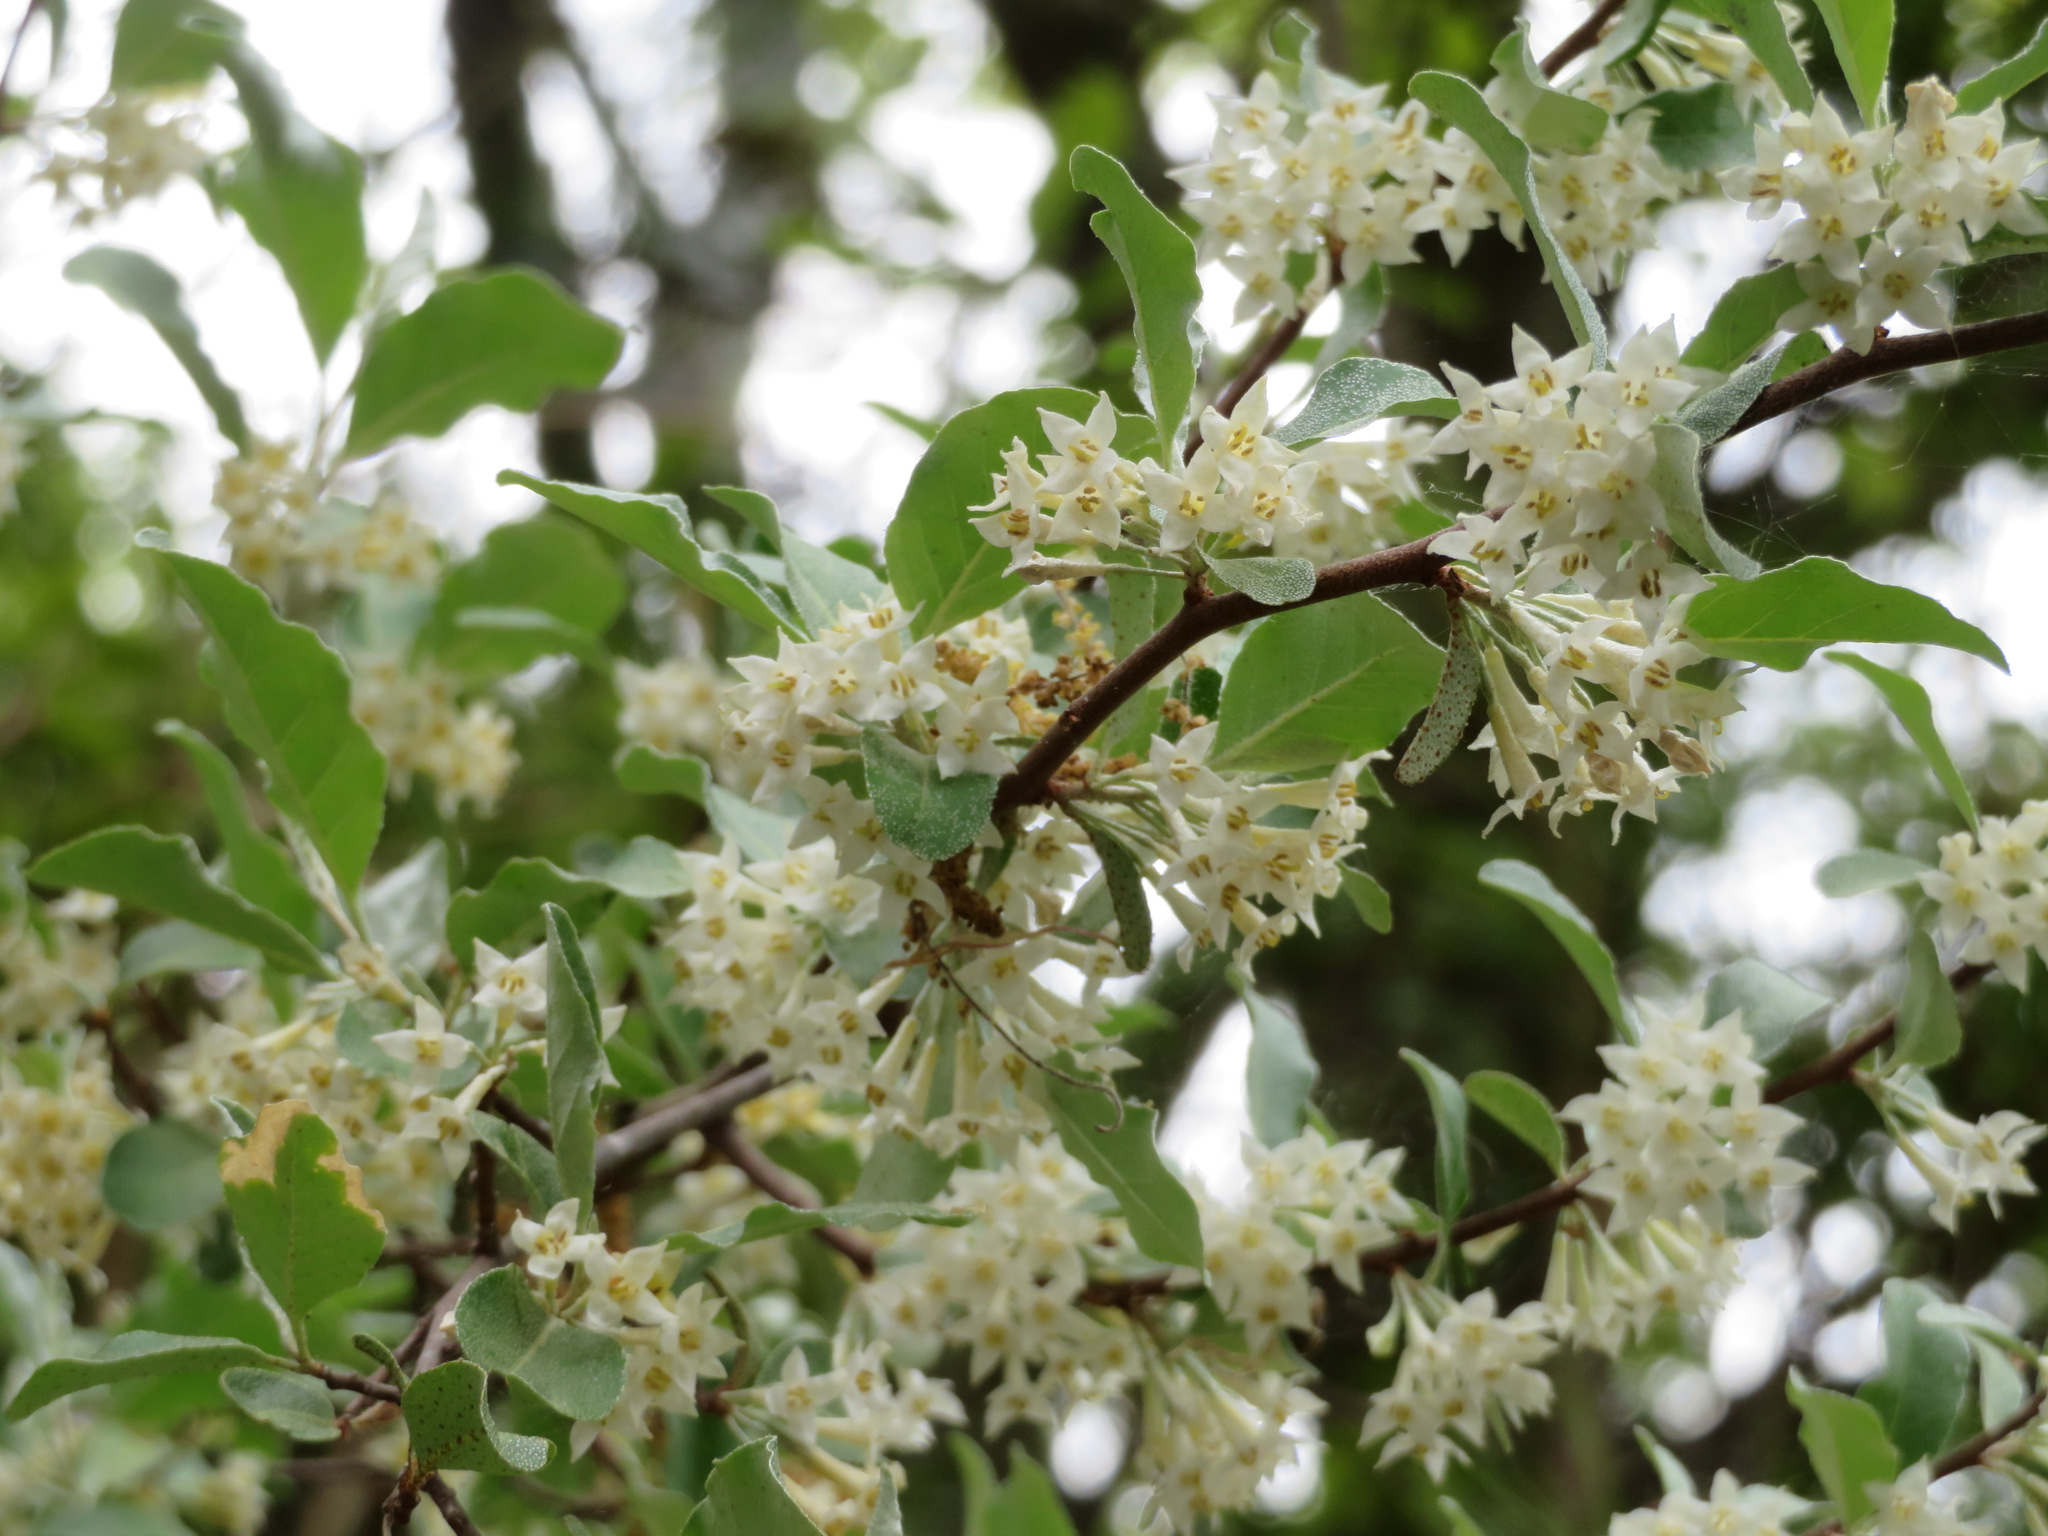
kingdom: Plantae
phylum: Tracheophyta
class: Magnoliopsida
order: Rosales
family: Elaeagnaceae
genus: Elaeagnus
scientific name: Elaeagnus umbellata
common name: Autumn olive
